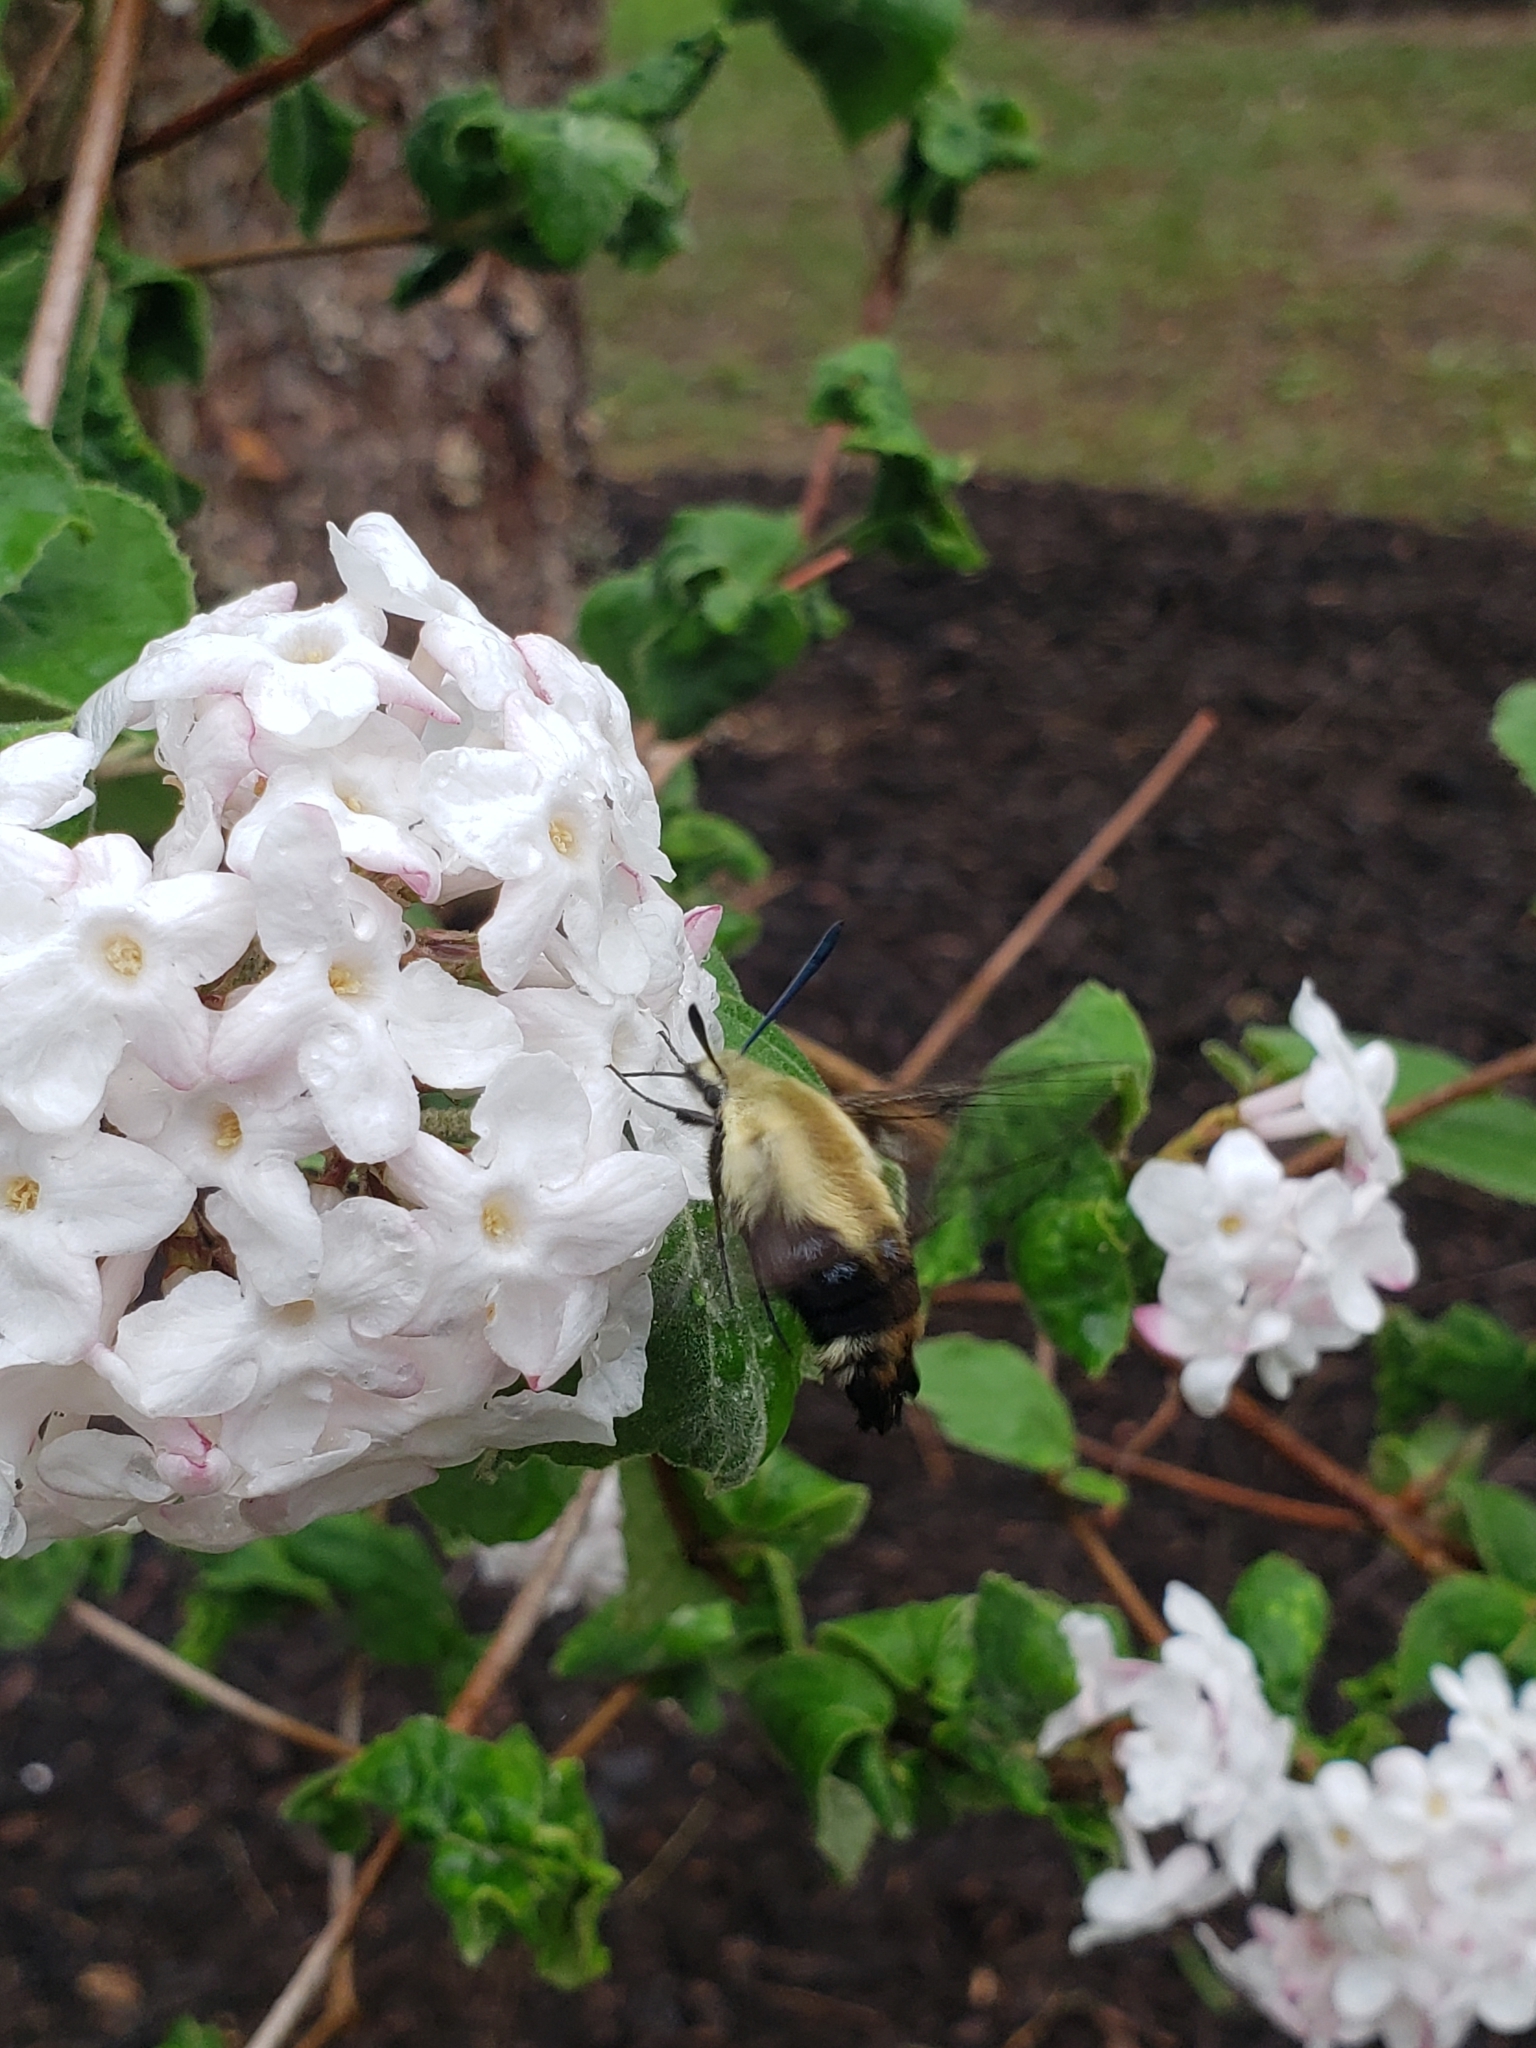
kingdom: Animalia
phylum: Arthropoda
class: Insecta
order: Lepidoptera
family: Sphingidae
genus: Hemaris
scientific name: Hemaris diffinis
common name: Bumblebee moth
